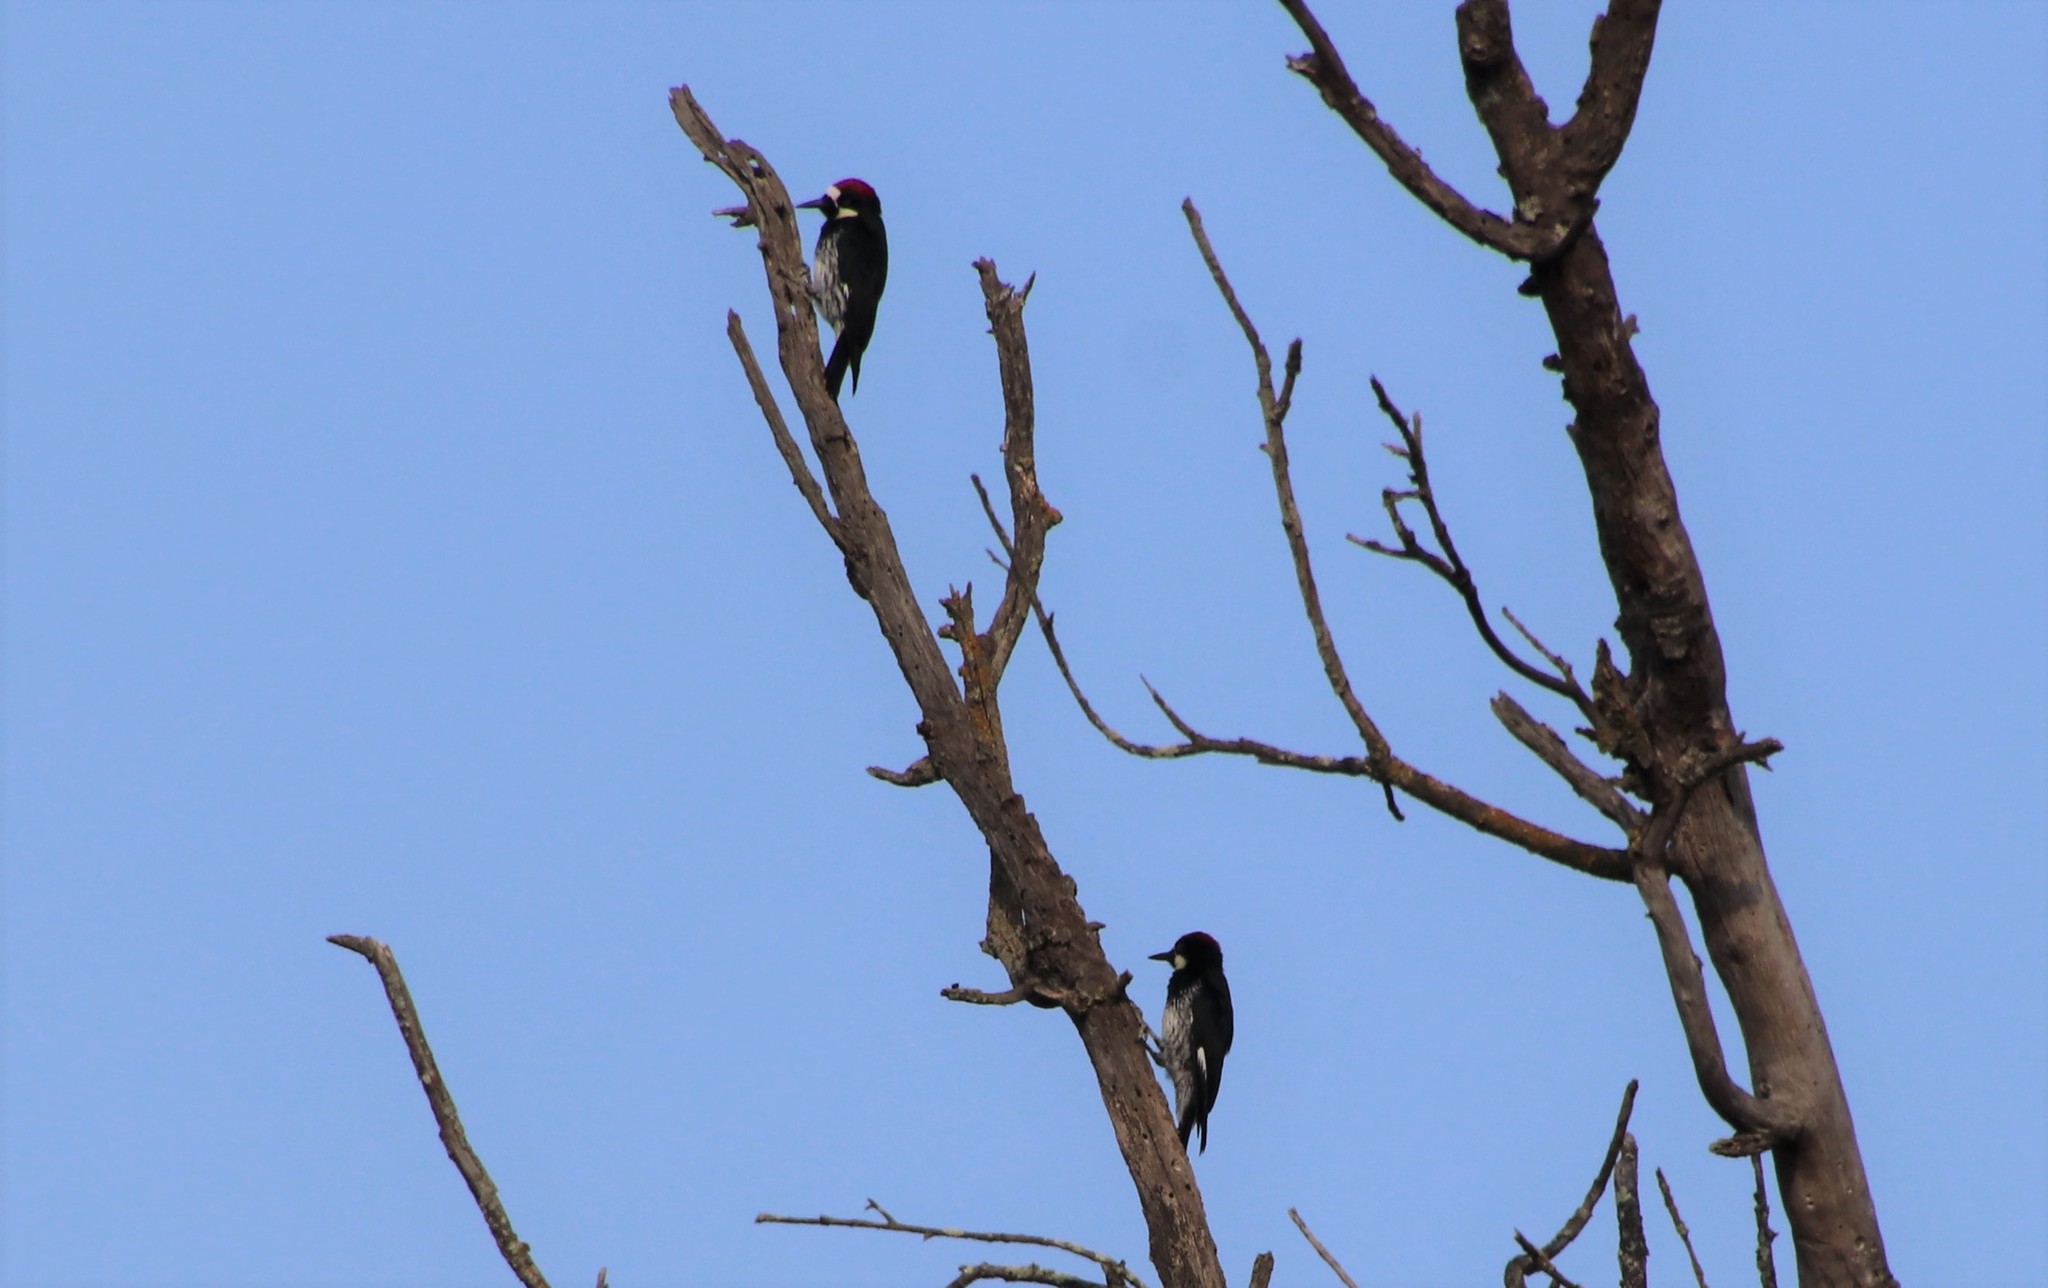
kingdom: Animalia
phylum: Chordata
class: Aves
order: Piciformes
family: Picidae
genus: Melanerpes
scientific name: Melanerpes formicivorus
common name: Acorn woodpecker
